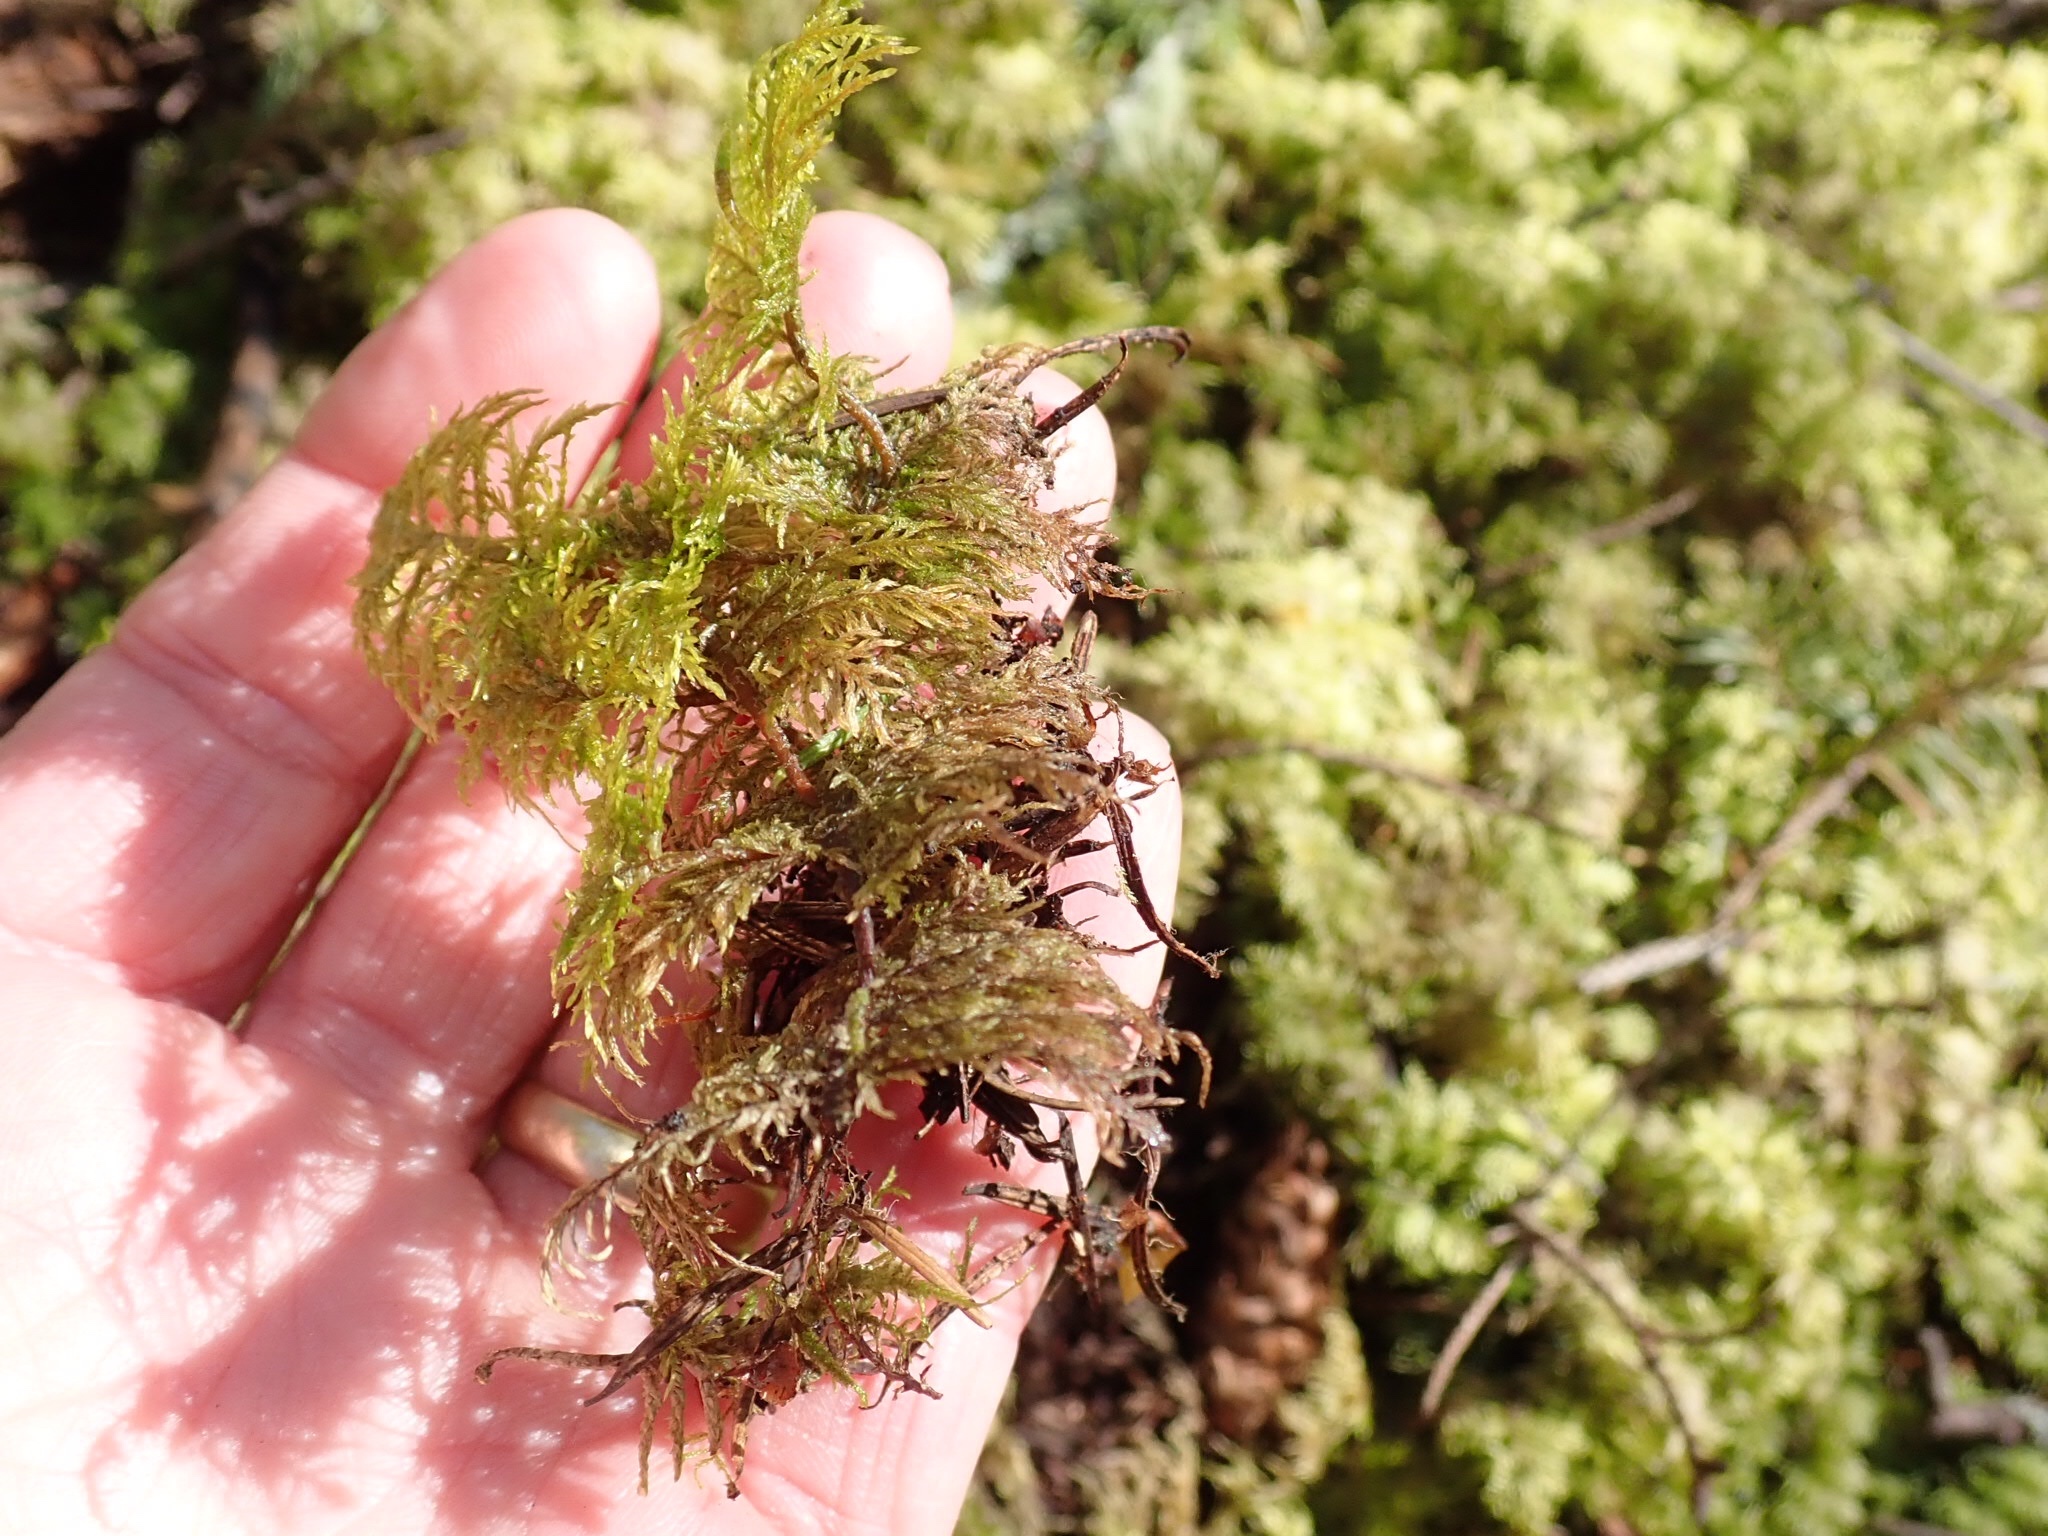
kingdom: Plantae
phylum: Bryophyta
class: Bryopsida
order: Hypnales
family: Hylocomiaceae
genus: Hylocomium
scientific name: Hylocomium splendens
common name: Stairstep moss
